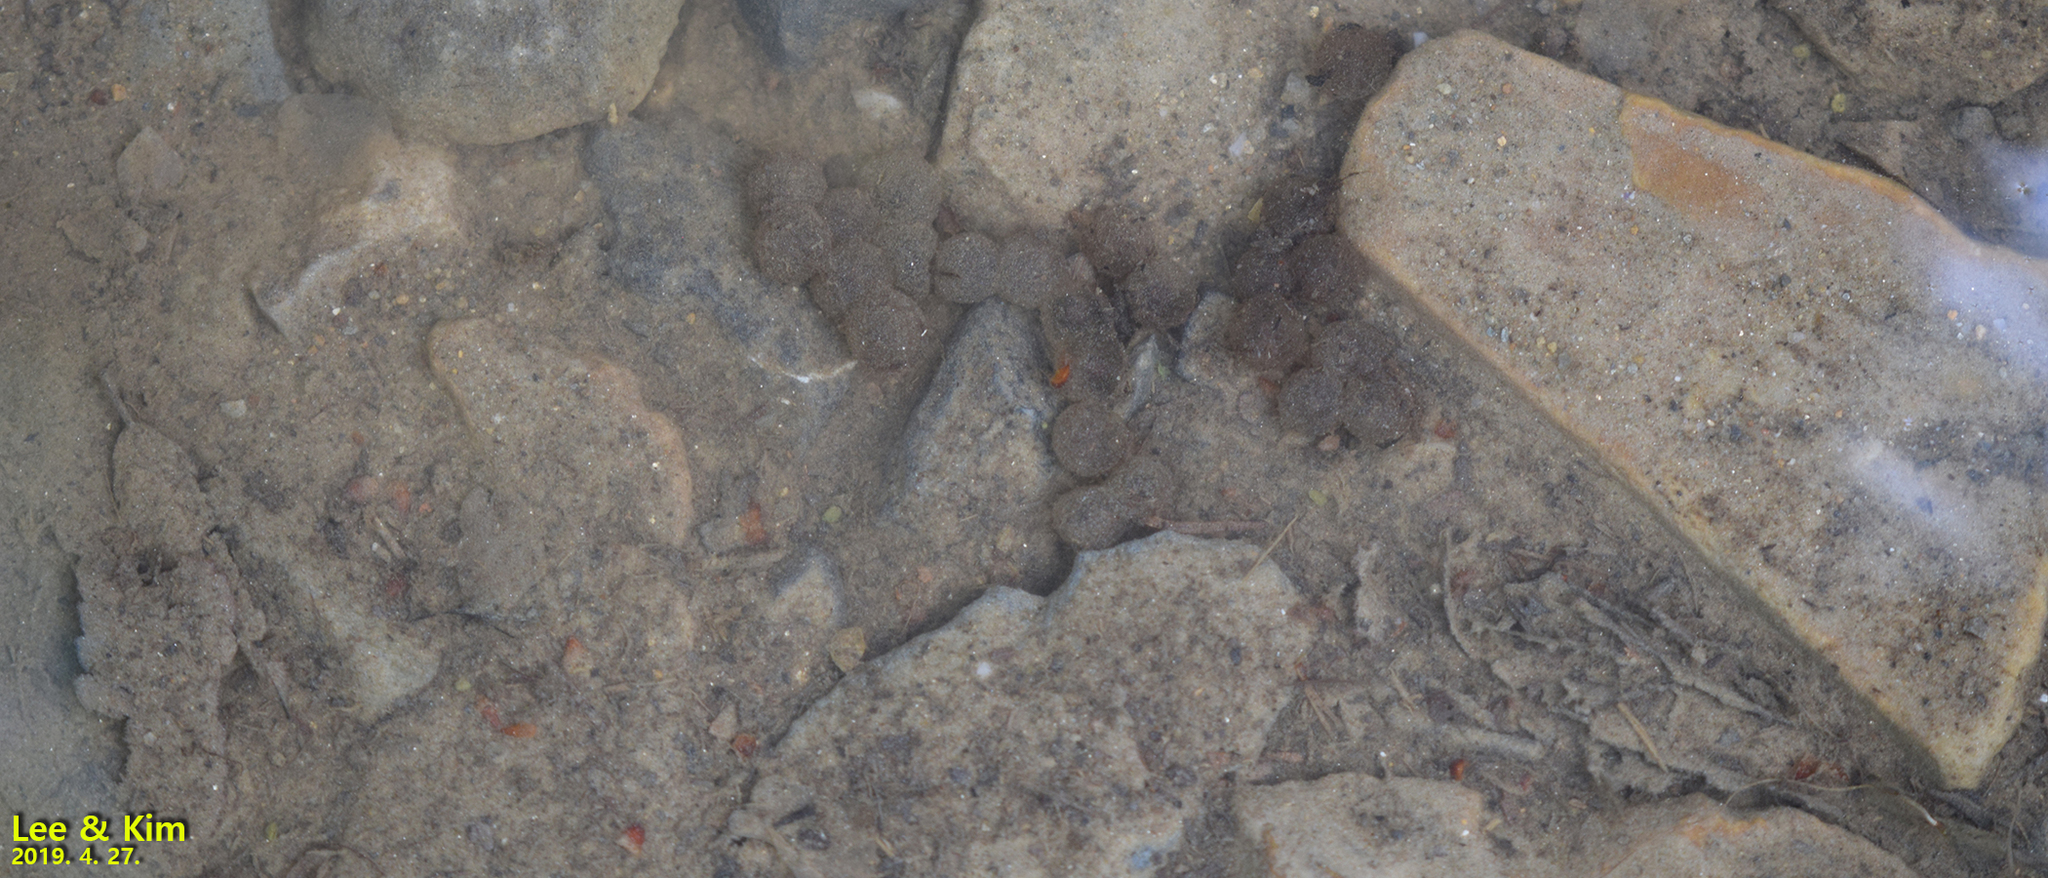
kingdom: Animalia
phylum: Chordata
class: Amphibia
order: Anura
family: Bombinatoridae
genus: Bombina
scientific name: Bombina orientalis
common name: Oriental firebelly toad
